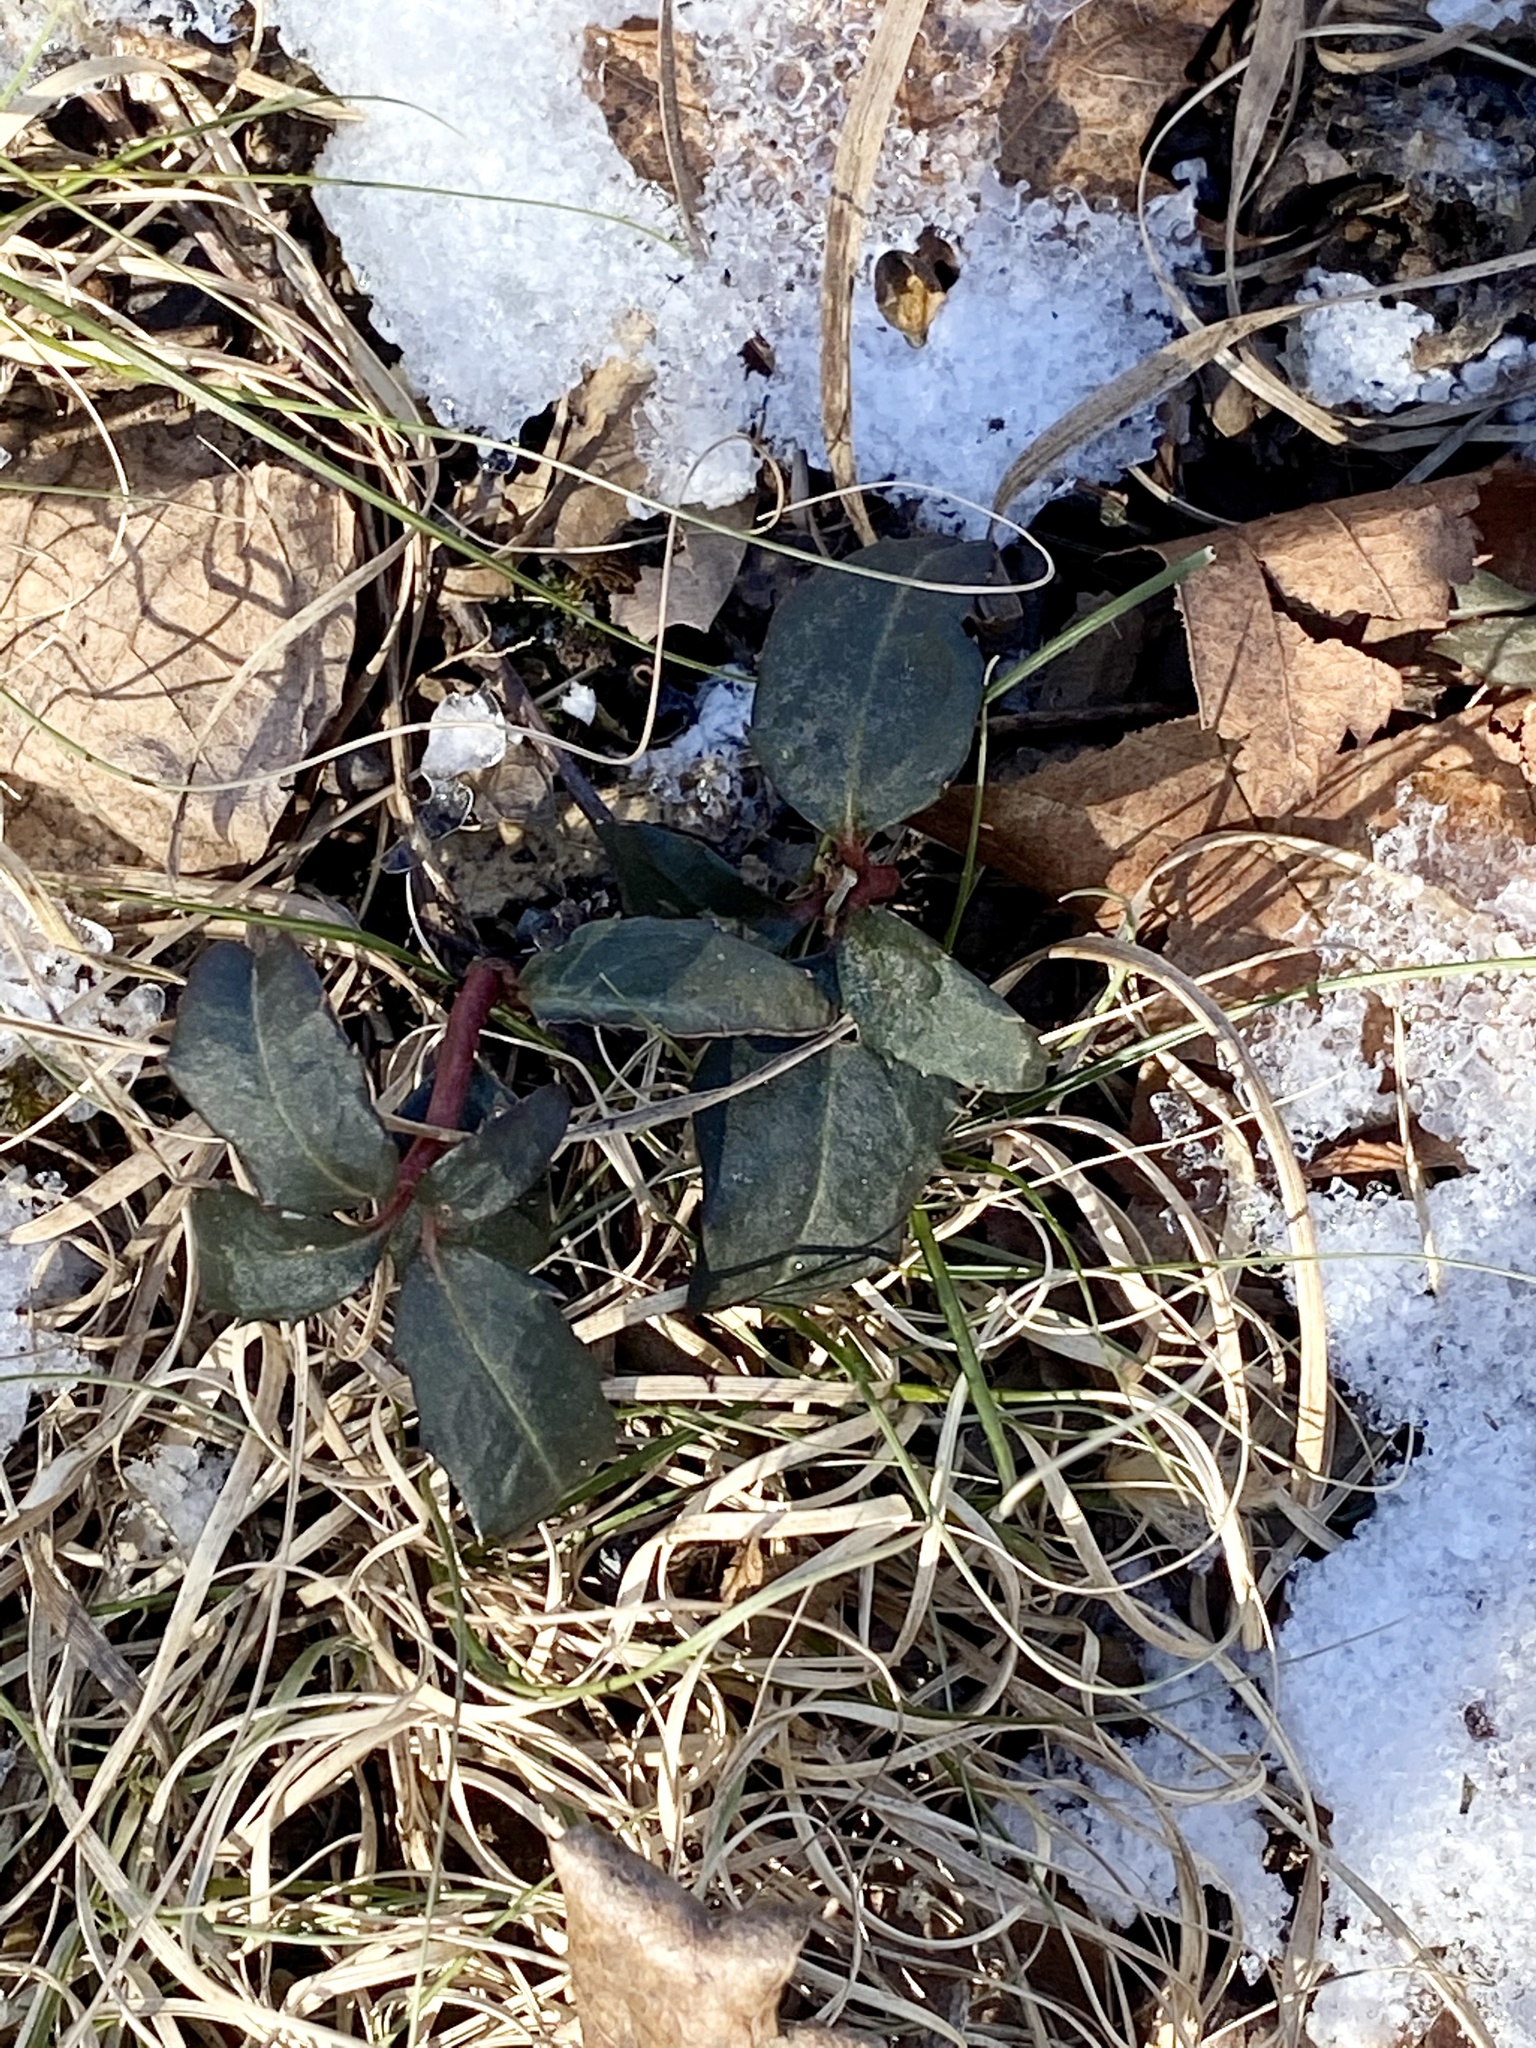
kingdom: Plantae
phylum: Tracheophyta
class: Magnoliopsida
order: Ericales
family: Ericaceae
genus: Chimaphila
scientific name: Chimaphila maculata
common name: Spotted pipsissewa
